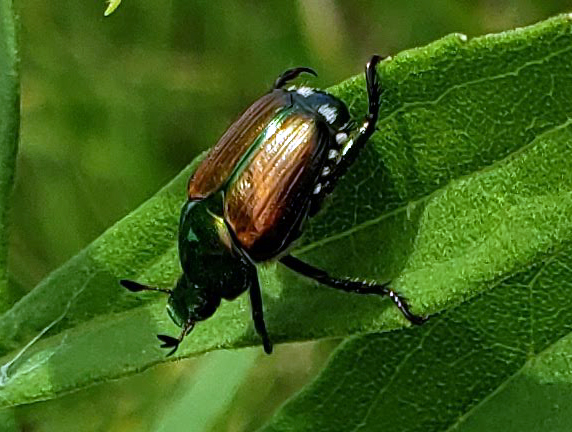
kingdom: Animalia
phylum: Arthropoda
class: Insecta
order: Coleoptera
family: Scarabaeidae
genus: Popillia
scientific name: Popillia japonica
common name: Japanese beetle
